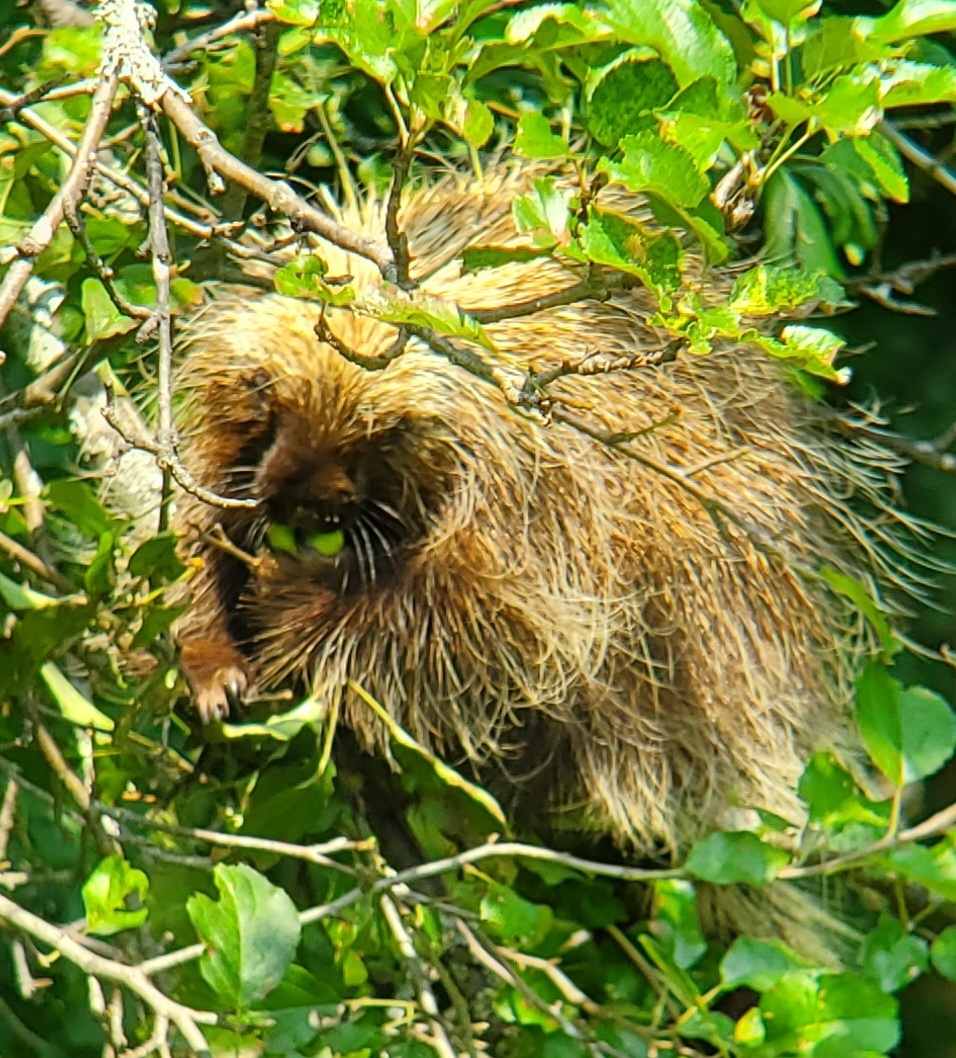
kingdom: Animalia
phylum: Chordata
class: Mammalia
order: Rodentia
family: Erethizontidae
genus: Erethizon
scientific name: Erethizon dorsatus
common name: North american porcupine
